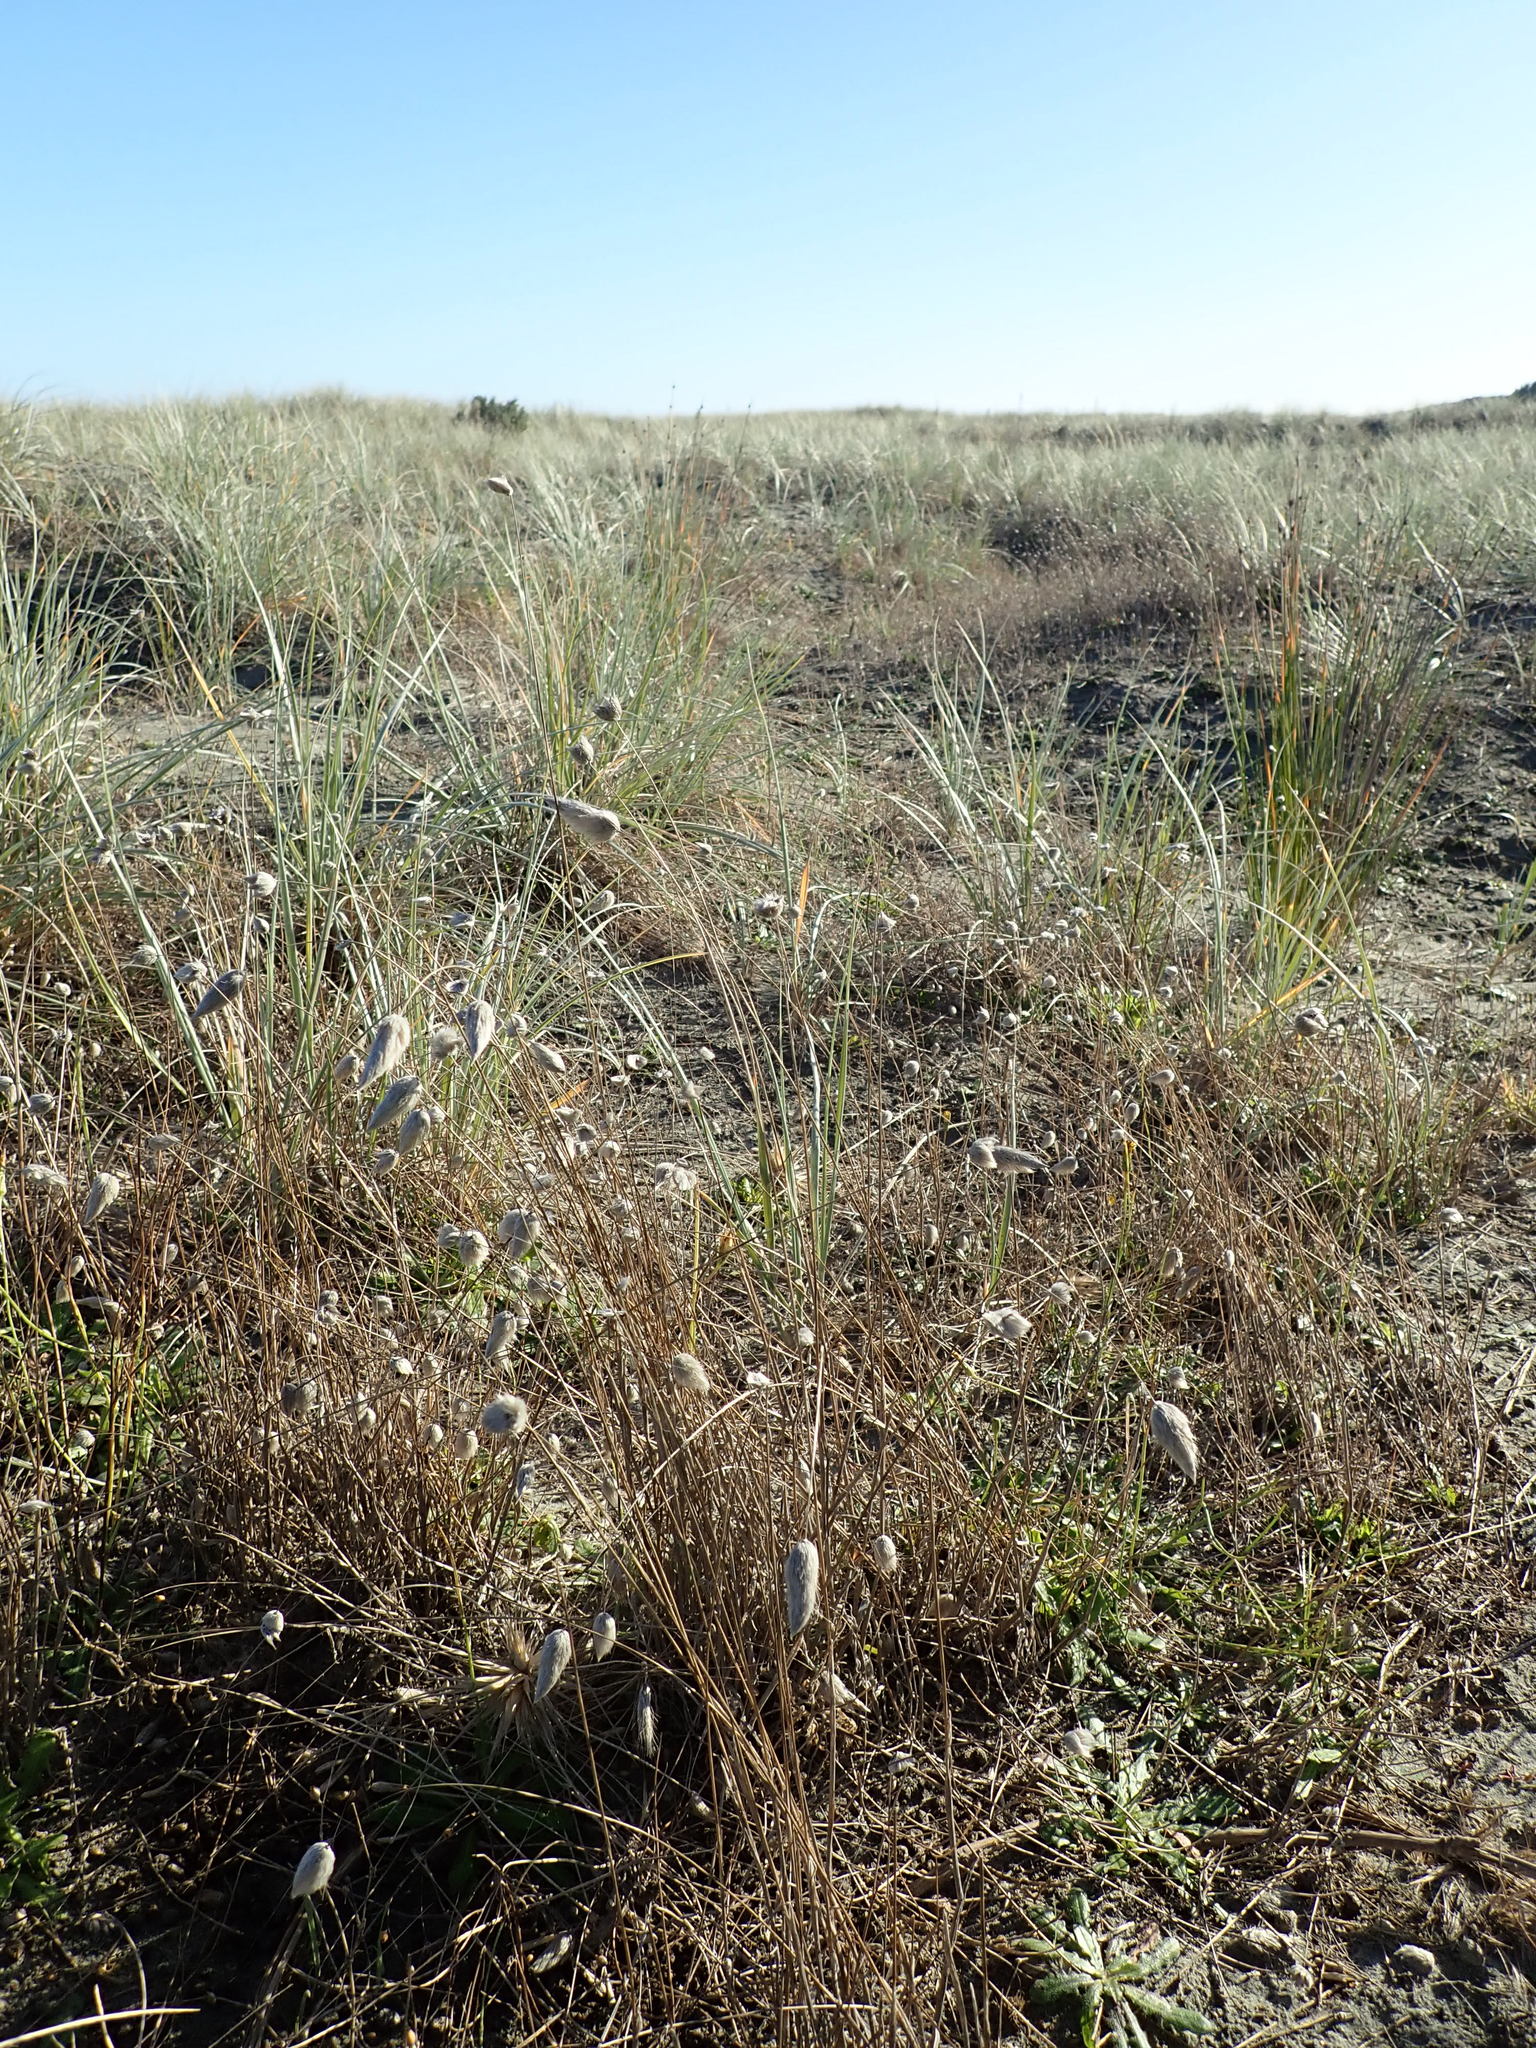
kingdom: Plantae
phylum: Tracheophyta
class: Liliopsida
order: Poales
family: Poaceae
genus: Lagurus
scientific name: Lagurus ovatus
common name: Hare's-tail
